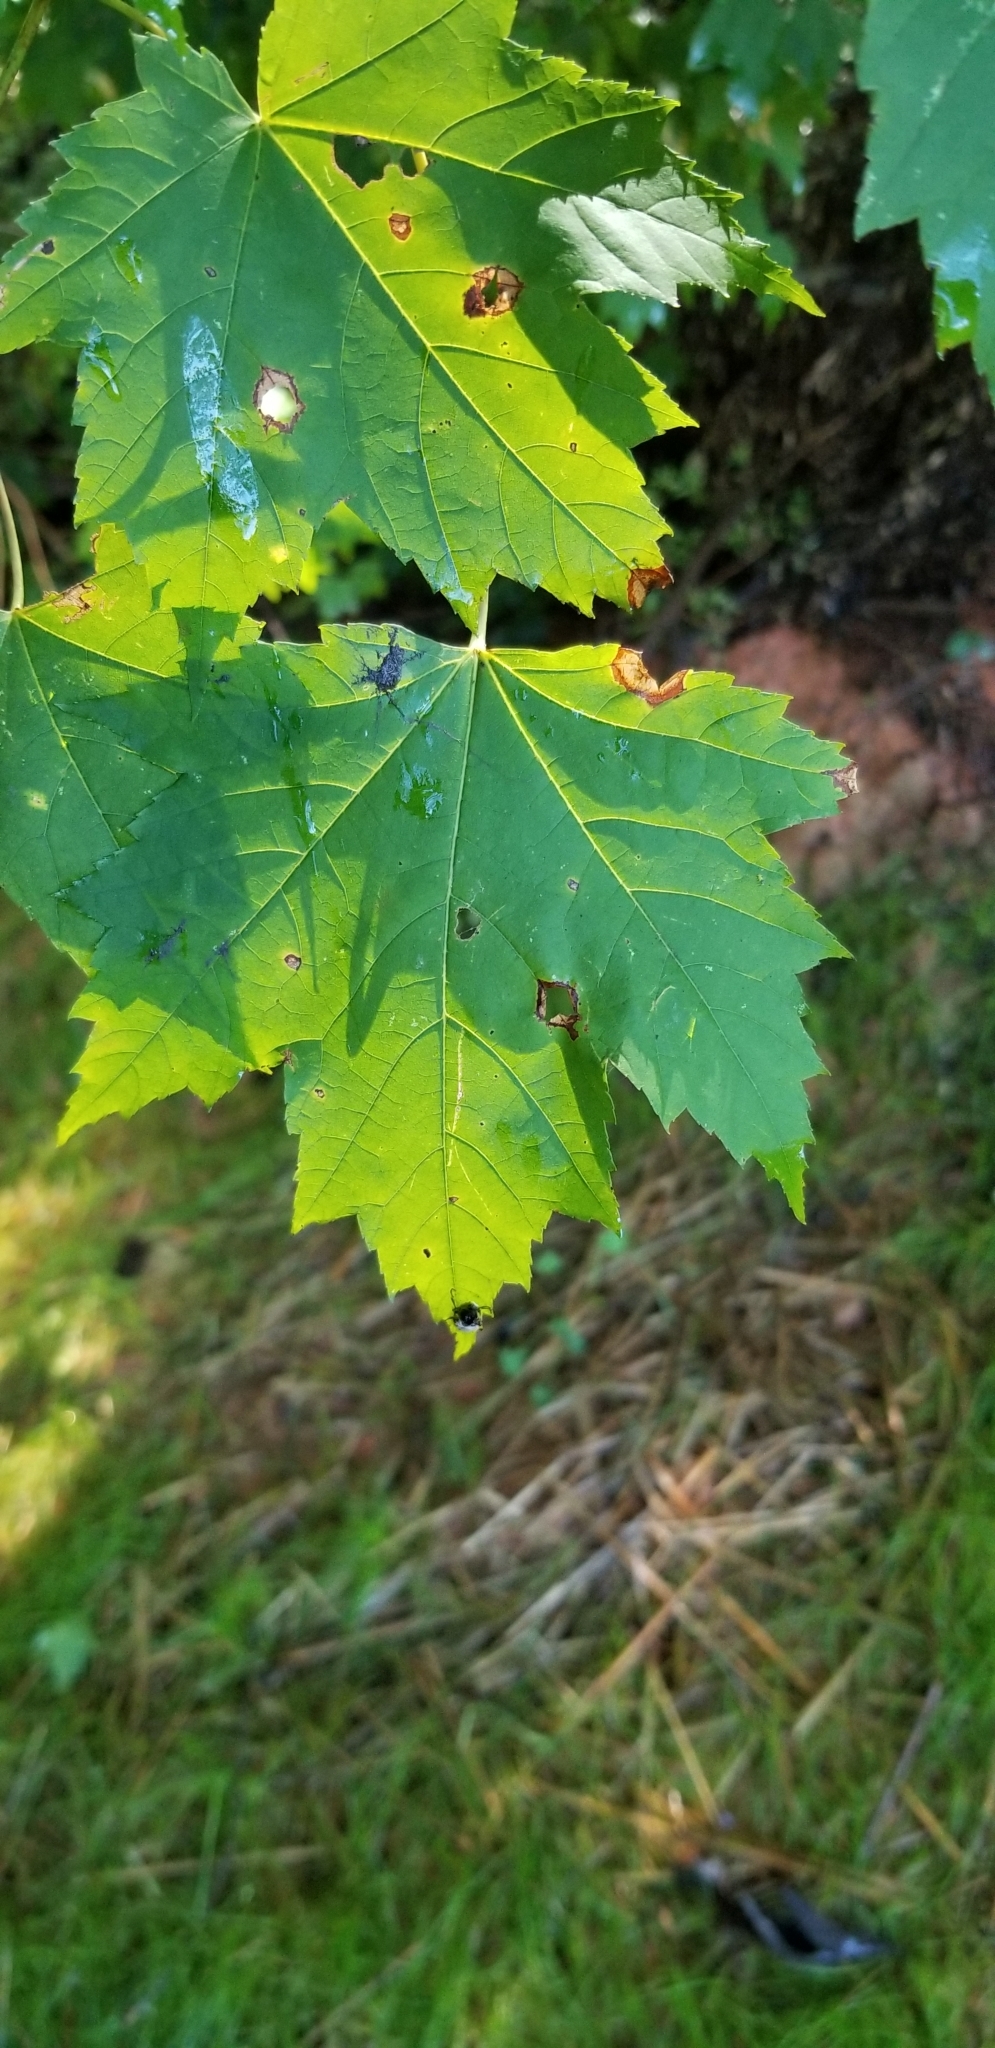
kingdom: Plantae
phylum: Tracheophyta
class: Magnoliopsida
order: Sapindales
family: Sapindaceae
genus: Acer
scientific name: Acer rubrum
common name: Red maple
